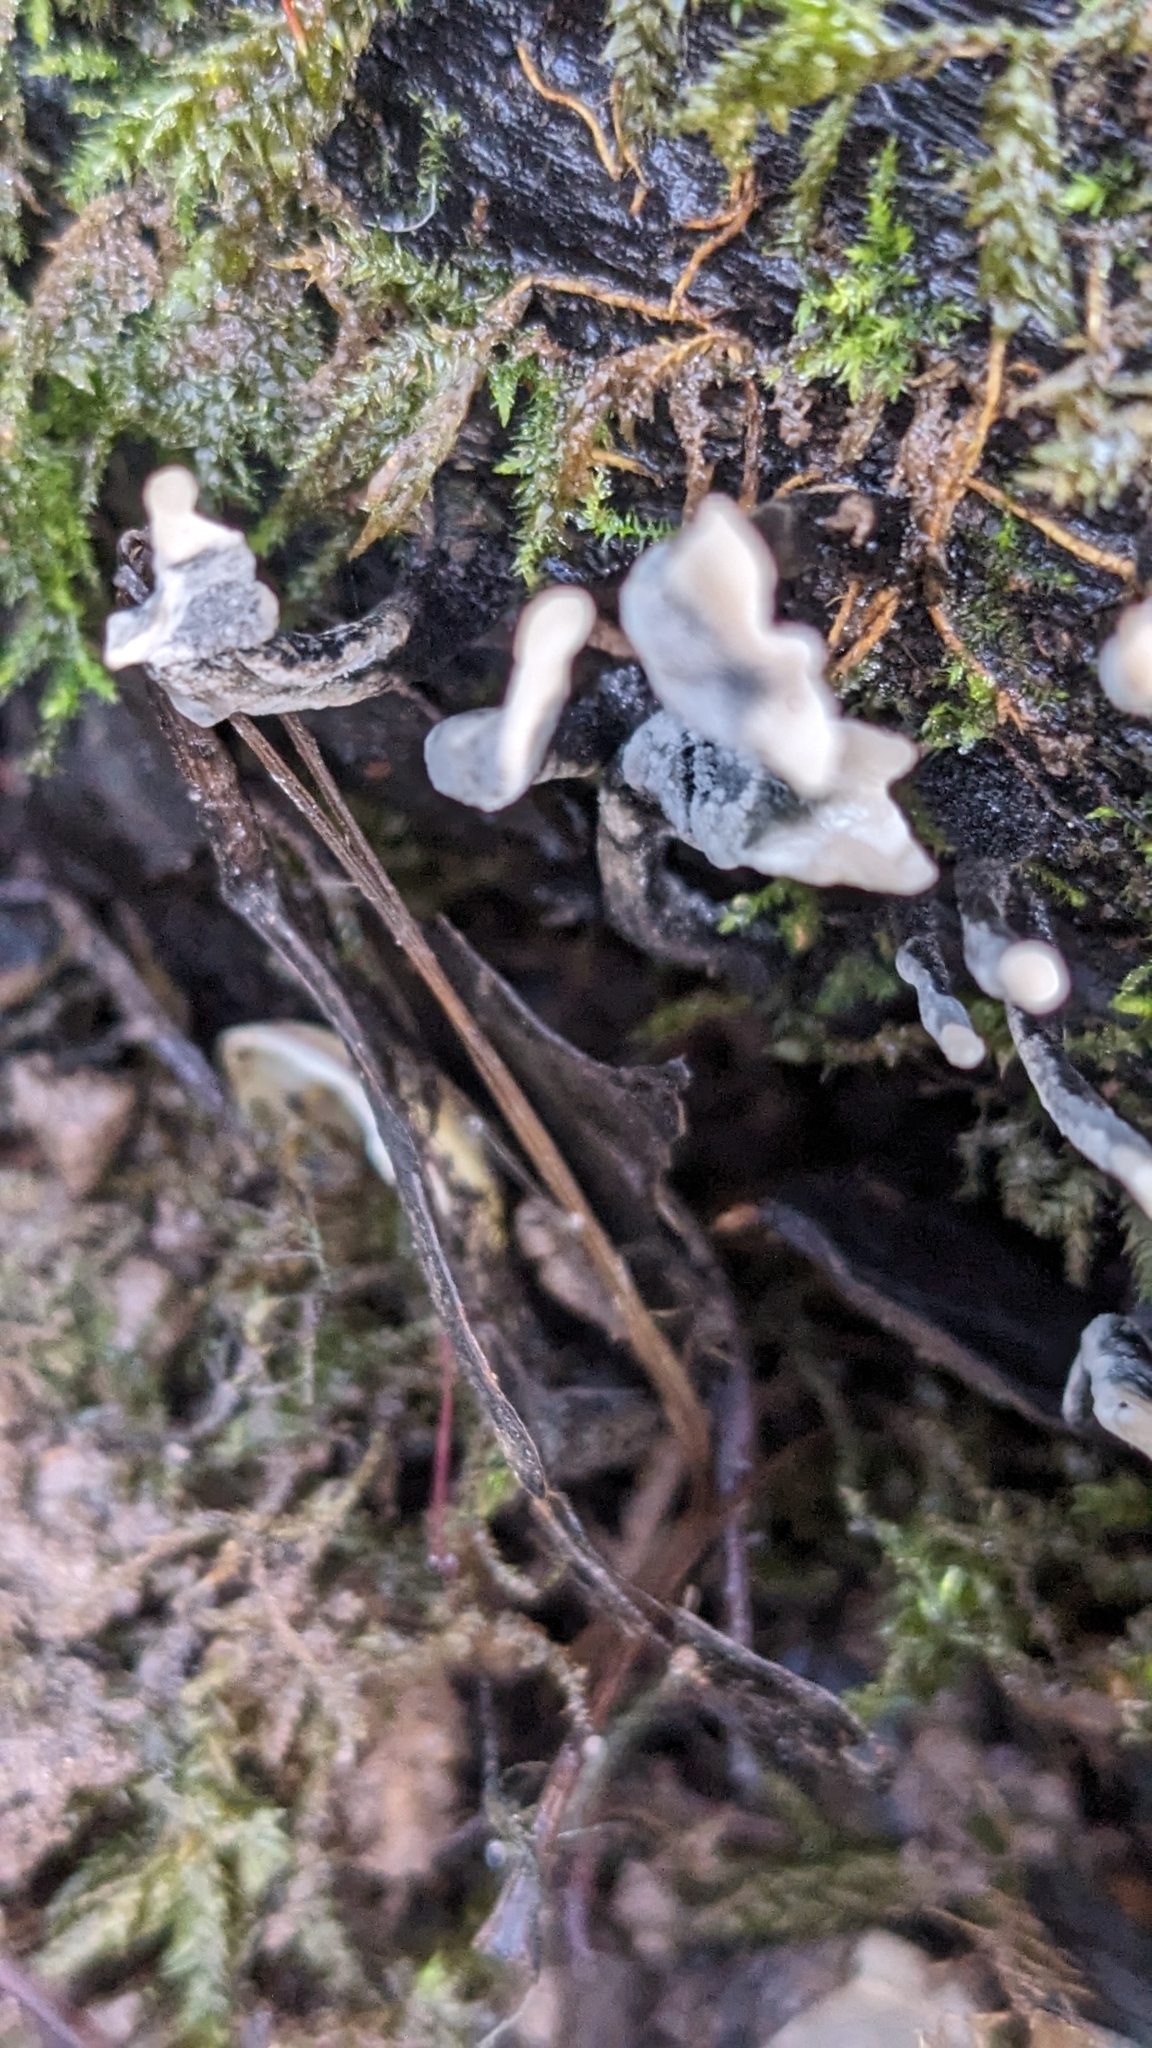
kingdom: Fungi
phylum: Ascomycota
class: Sordariomycetes
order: Xylariales
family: Xylariaceae
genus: Xylaria
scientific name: Xylaria hypoxylon
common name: Candle-snuff fungus
